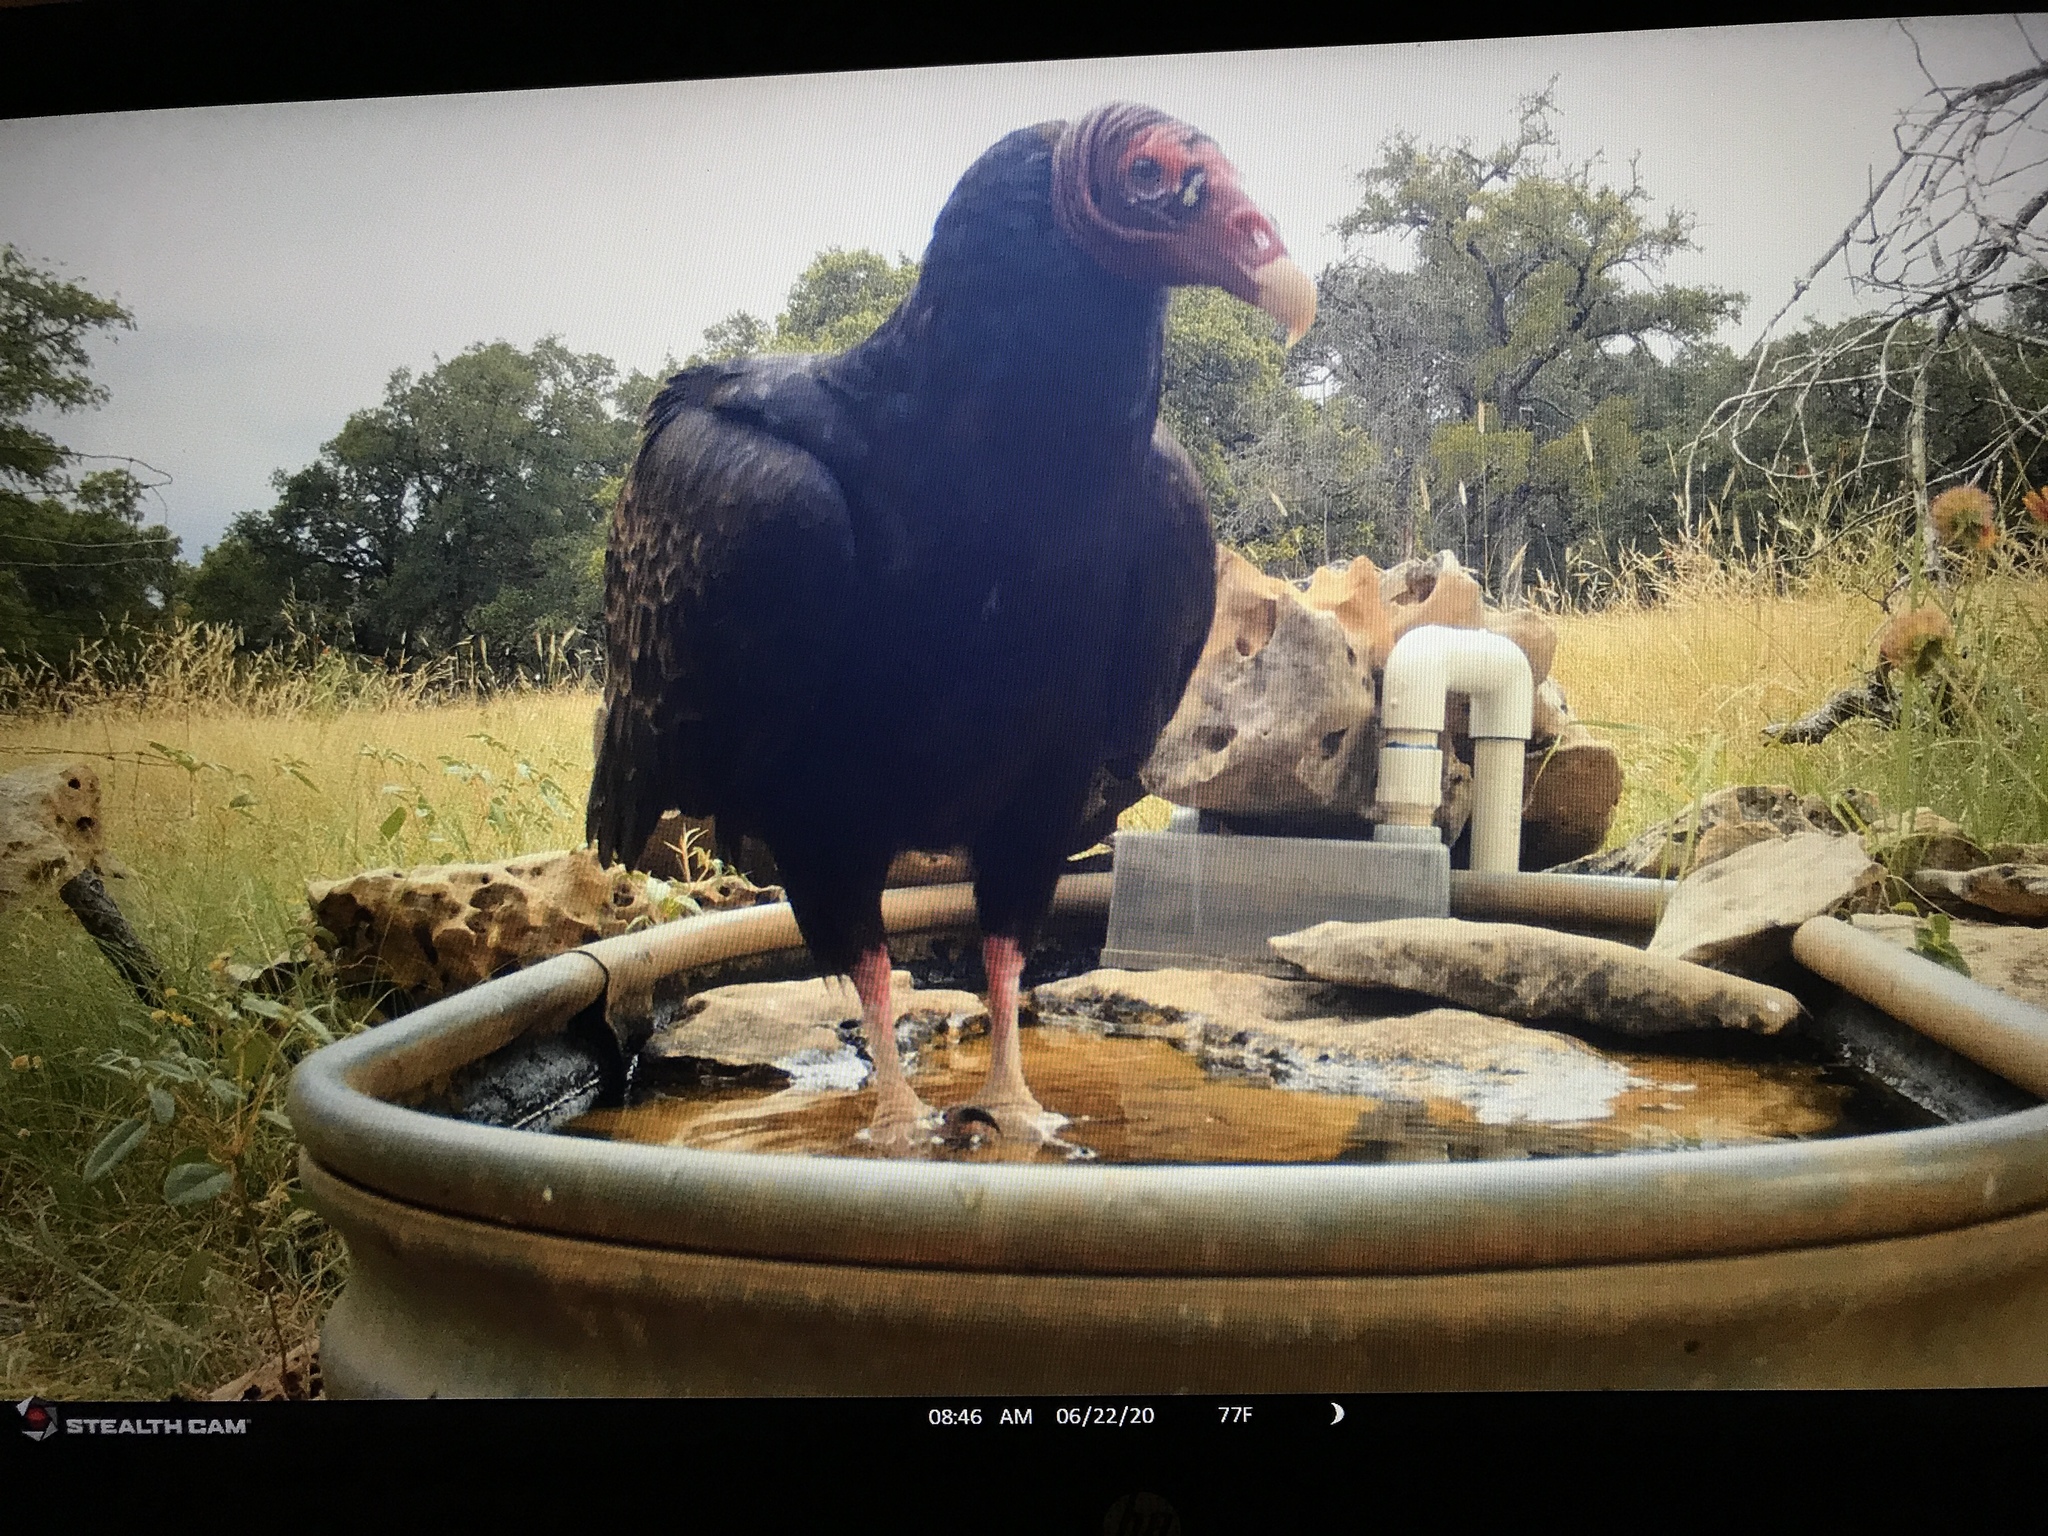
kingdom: Animalia
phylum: Chordata
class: Aves
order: Accipitriformes
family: Cathartidae
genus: Cathartes
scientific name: Cathartes aura
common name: Turkey vulture
